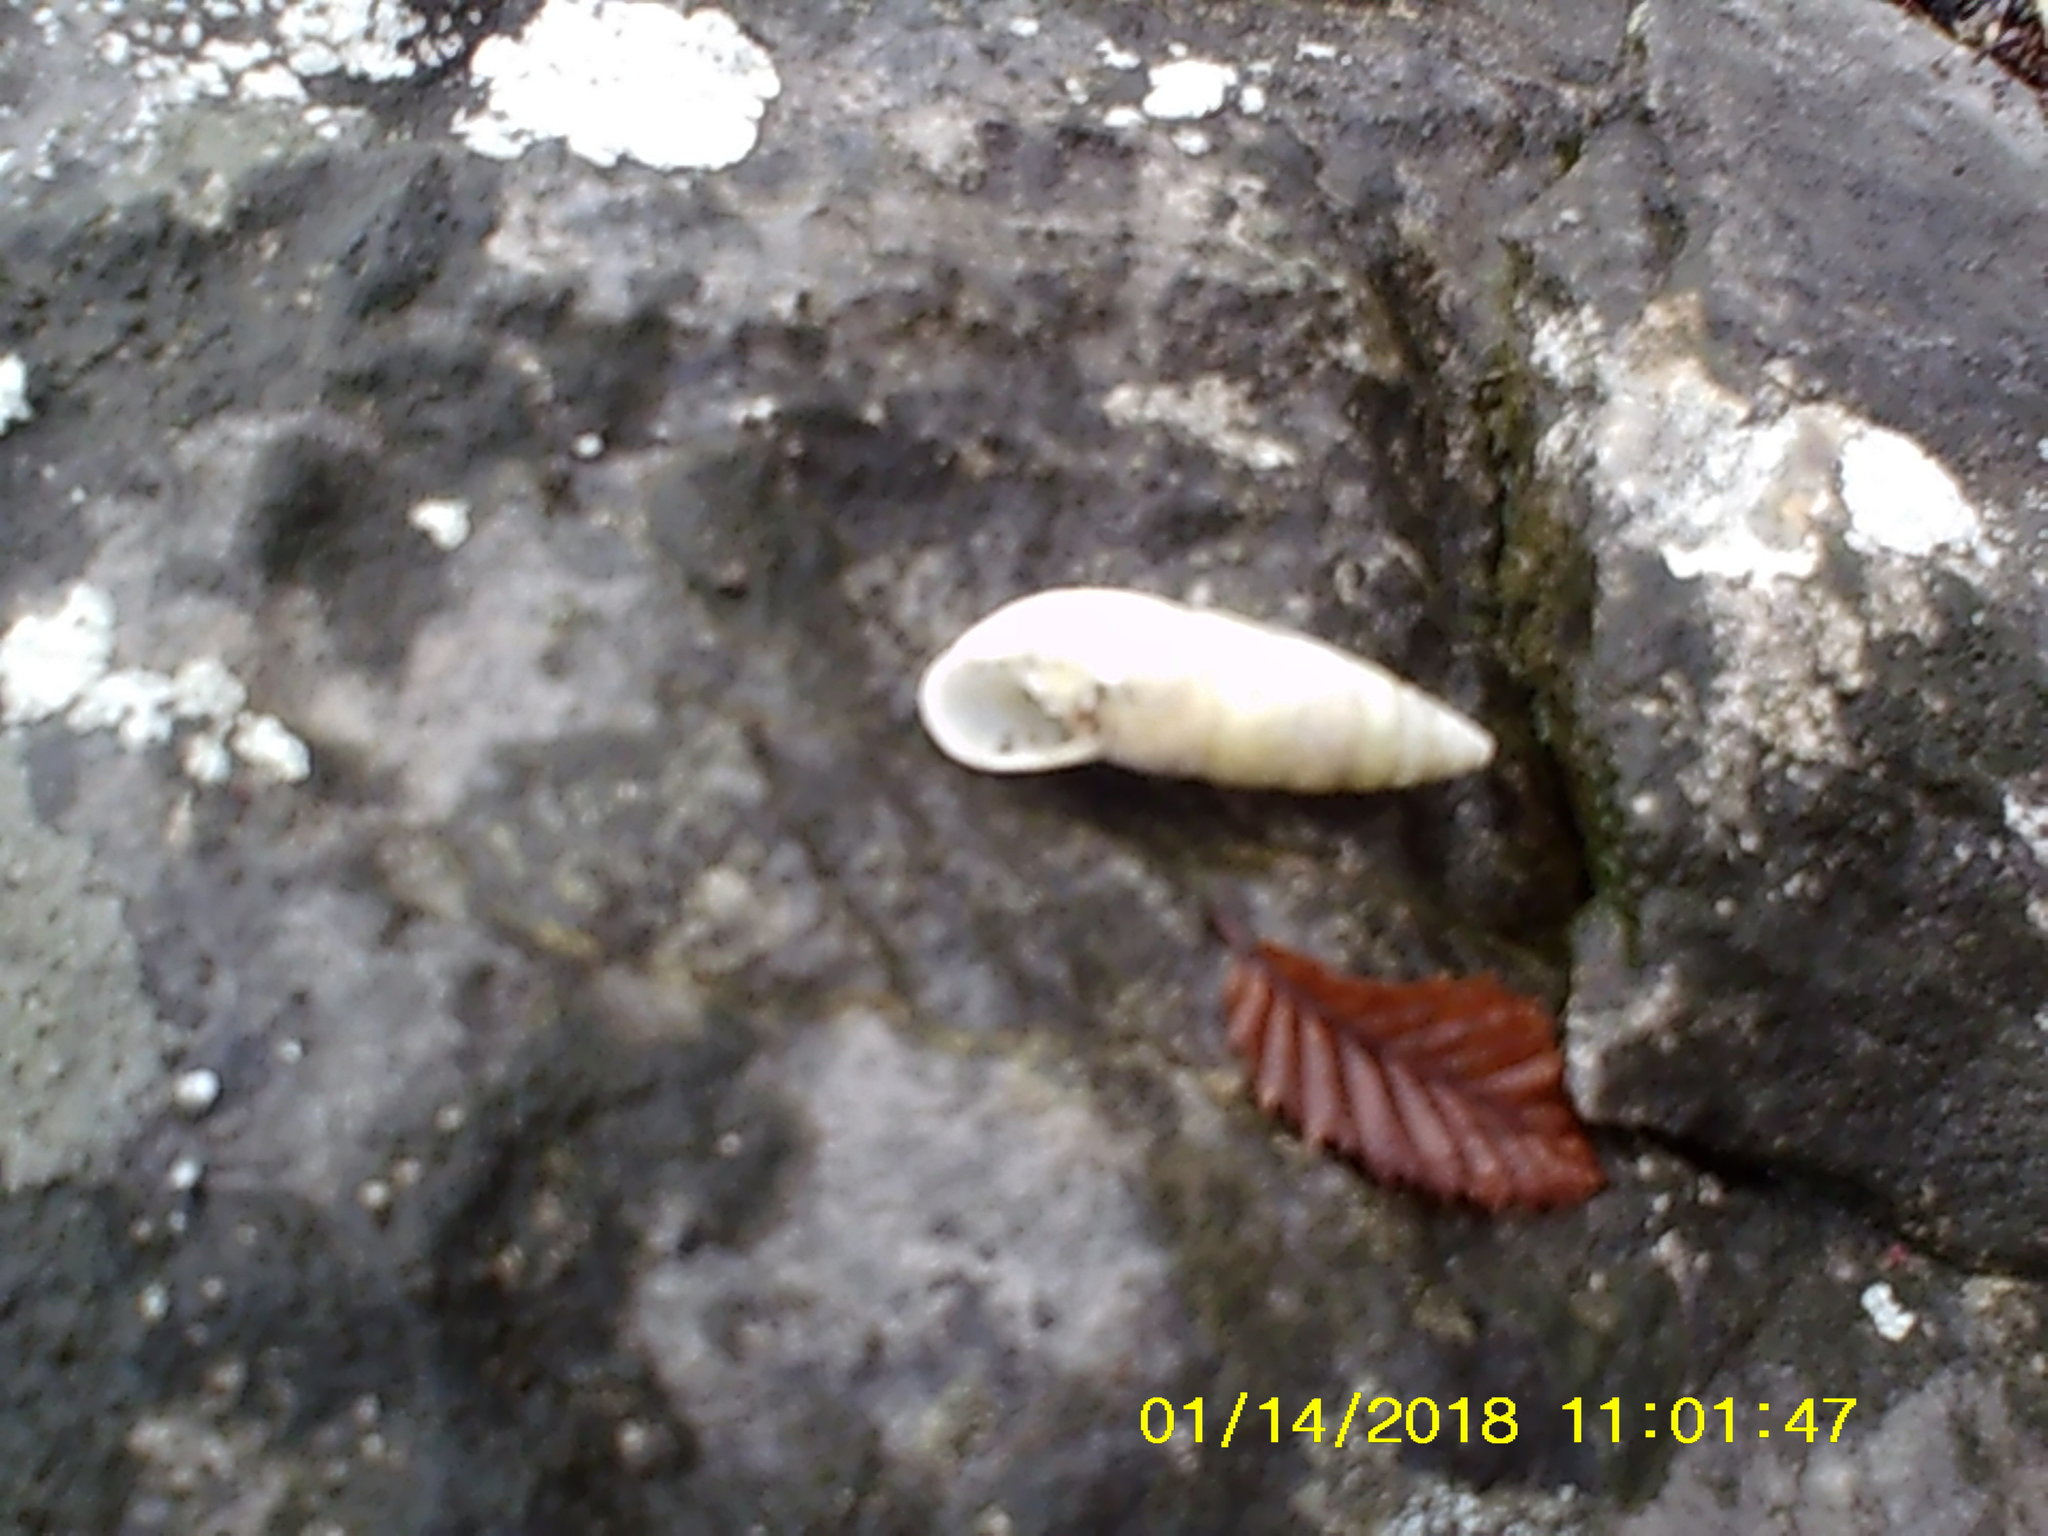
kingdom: Animalia
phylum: Mollusca
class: Gastropoda
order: Stylommatophora
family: Enidae
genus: Brephulopsis
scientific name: Brephulopsis cylindrica
